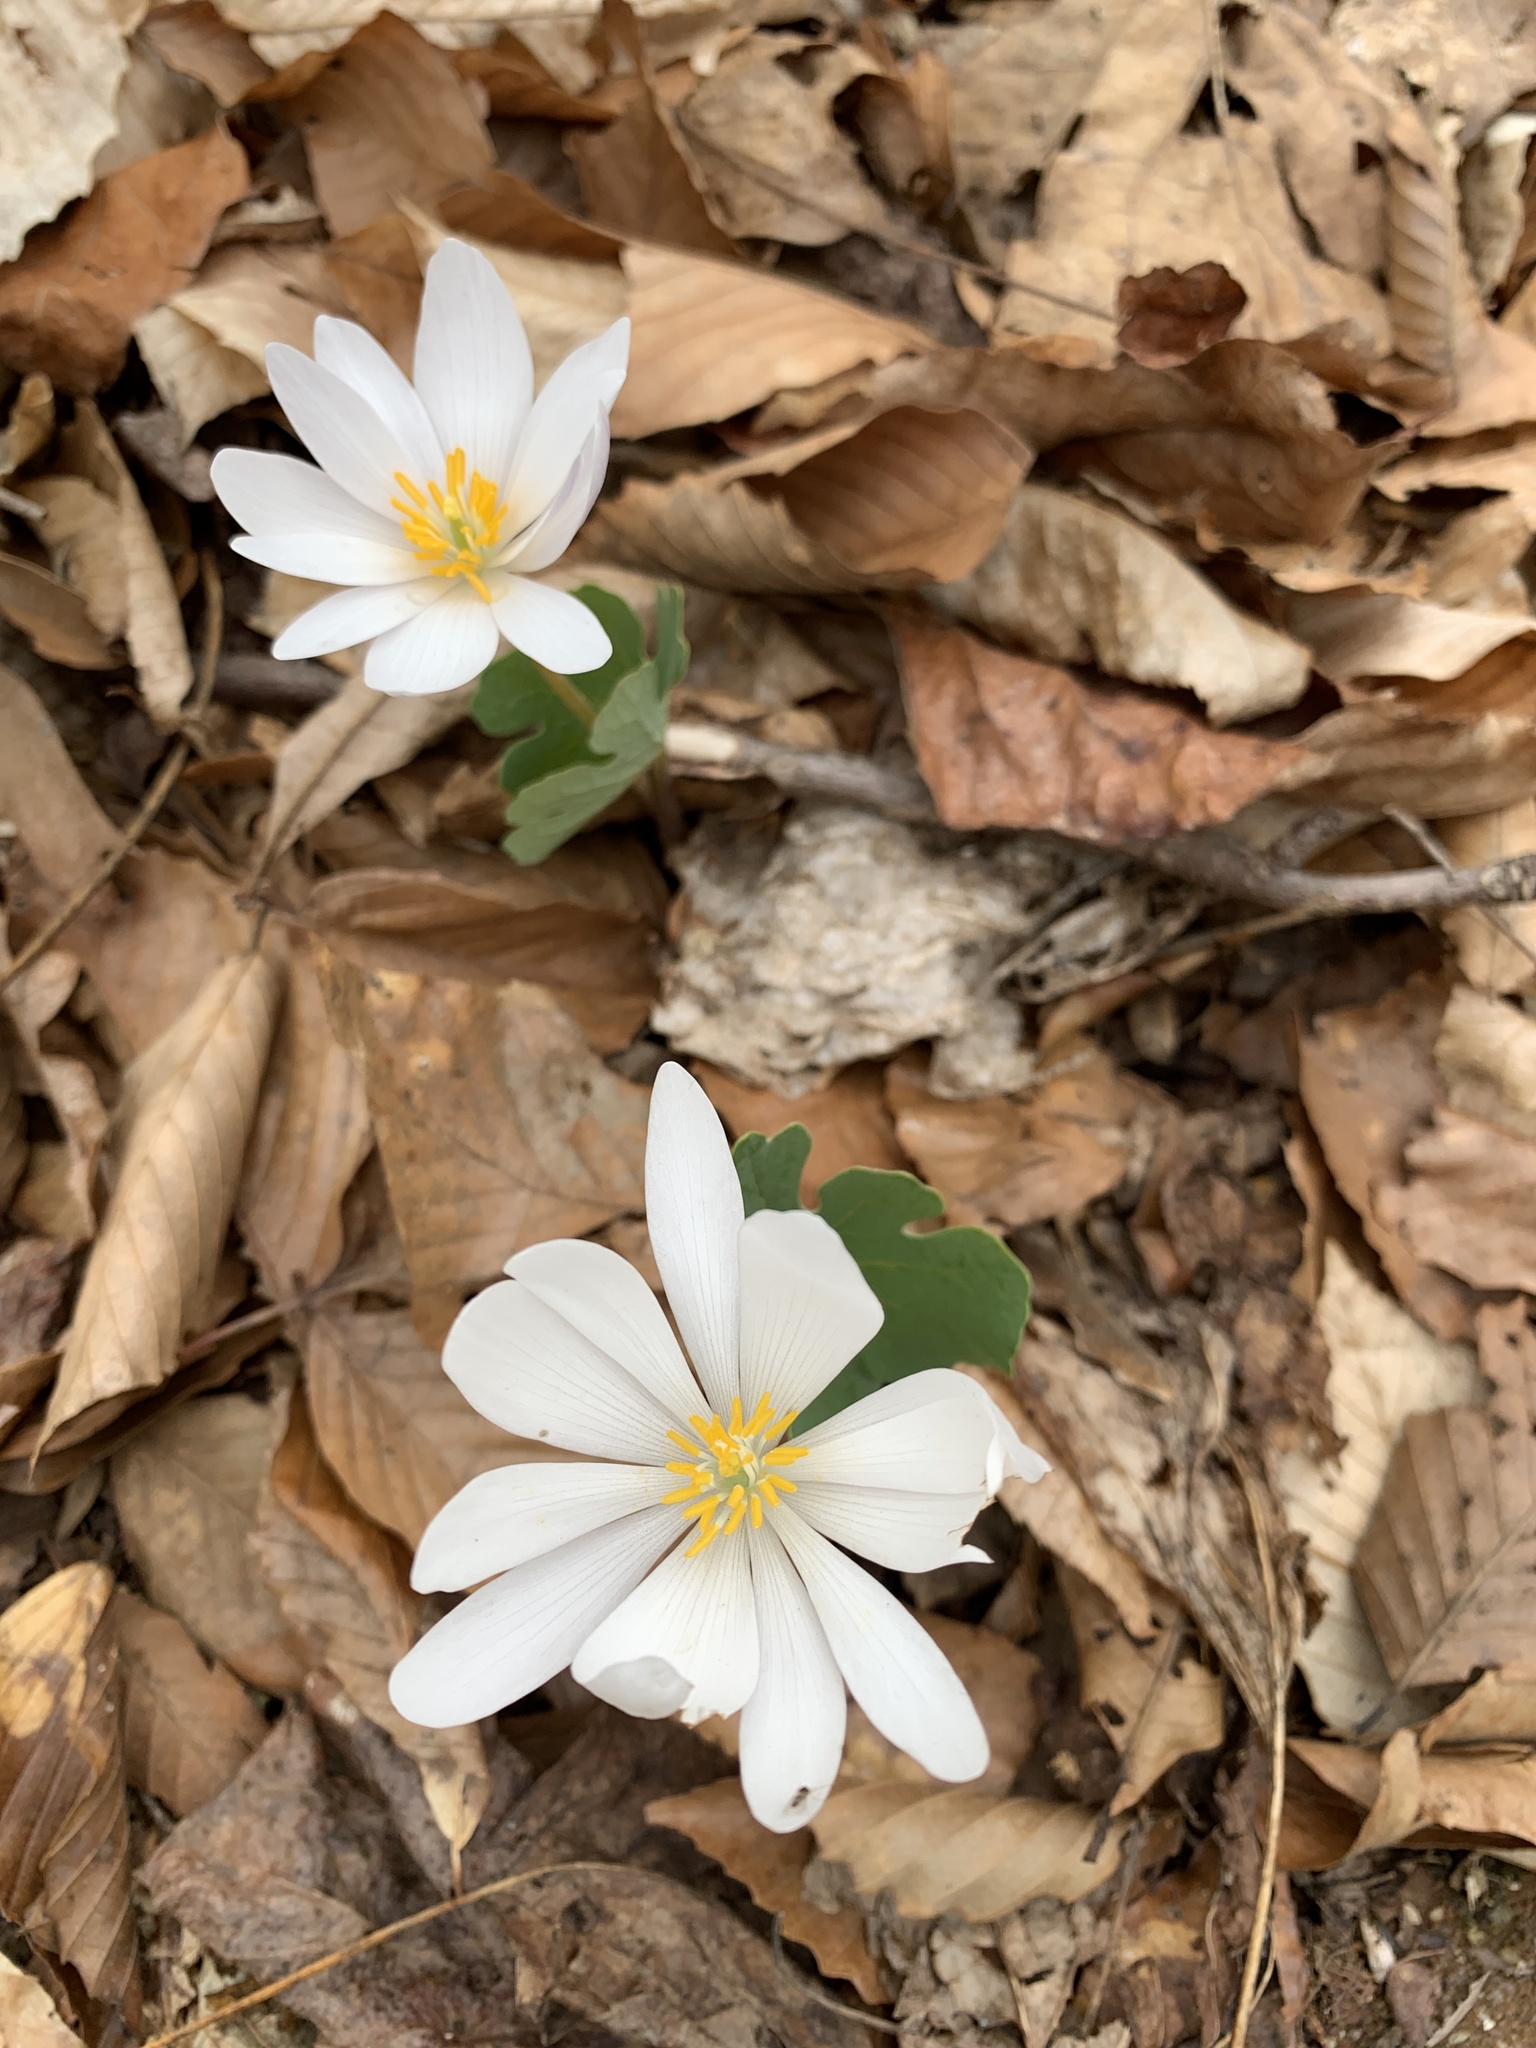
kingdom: Plantae
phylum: Tracheophyta
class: Magnoliopsida
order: Ranunculales
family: Papaveraceae
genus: Sanguinaria
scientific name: Sanguinaria canadensis
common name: Bloodroot
